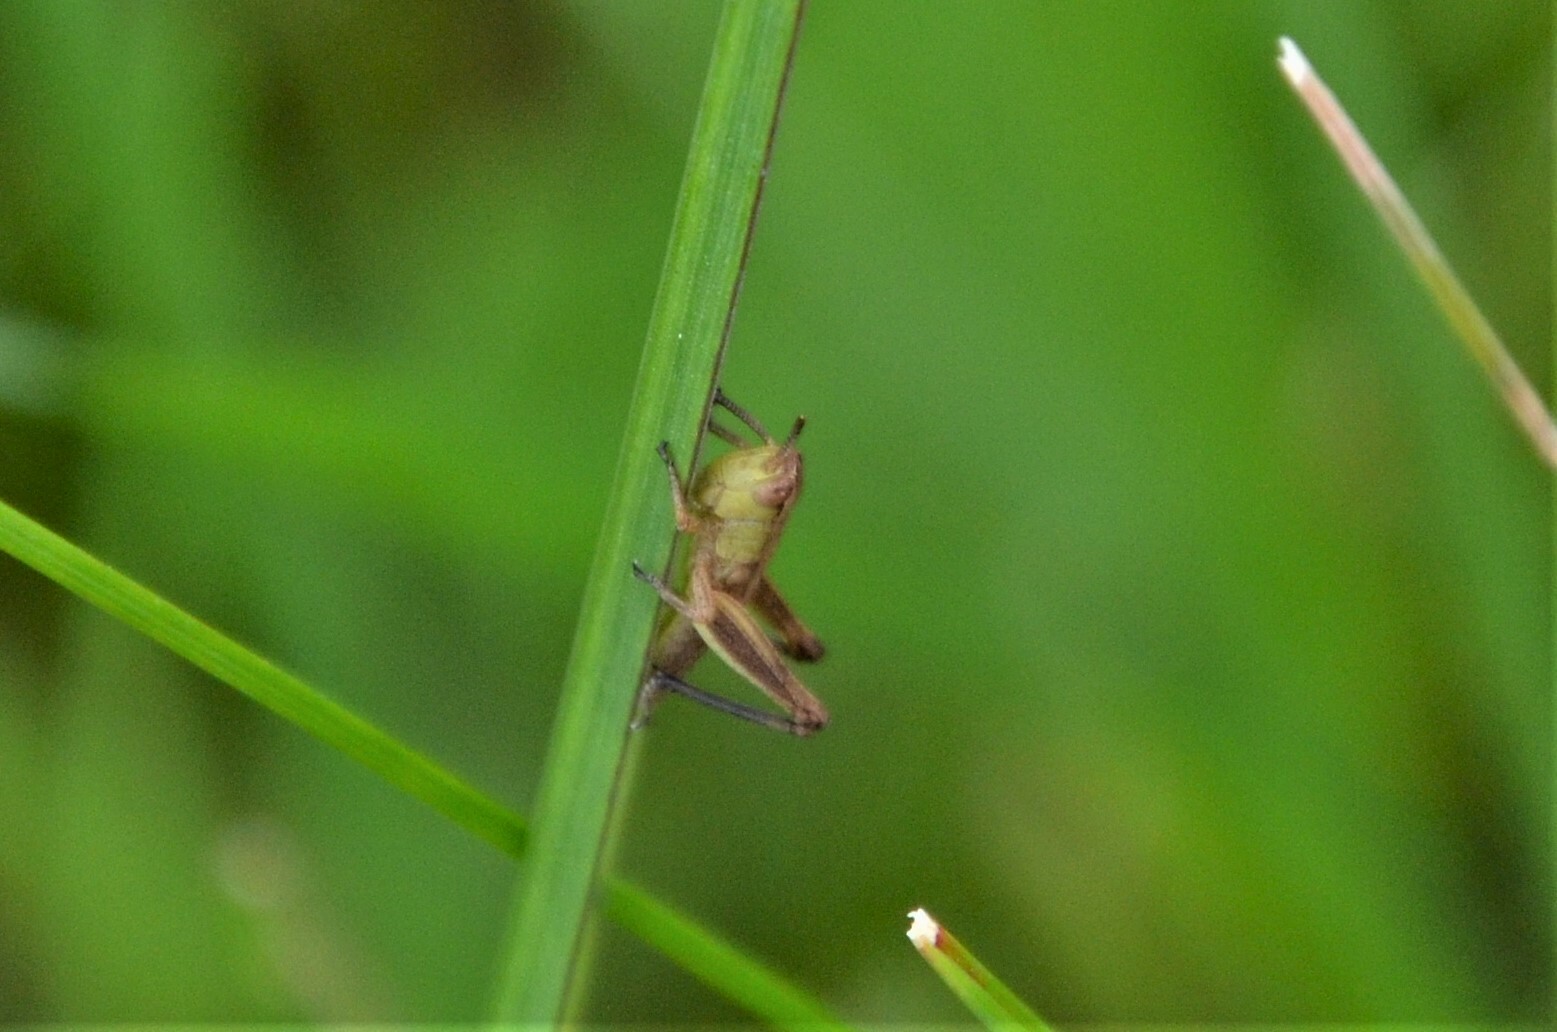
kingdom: Animalia
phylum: Arthropoda
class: Insecta
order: Orthoptera
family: Acrididae
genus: Pseudochorthippus
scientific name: Pseudochorthippus parallelus
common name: Meadow grasshopper
